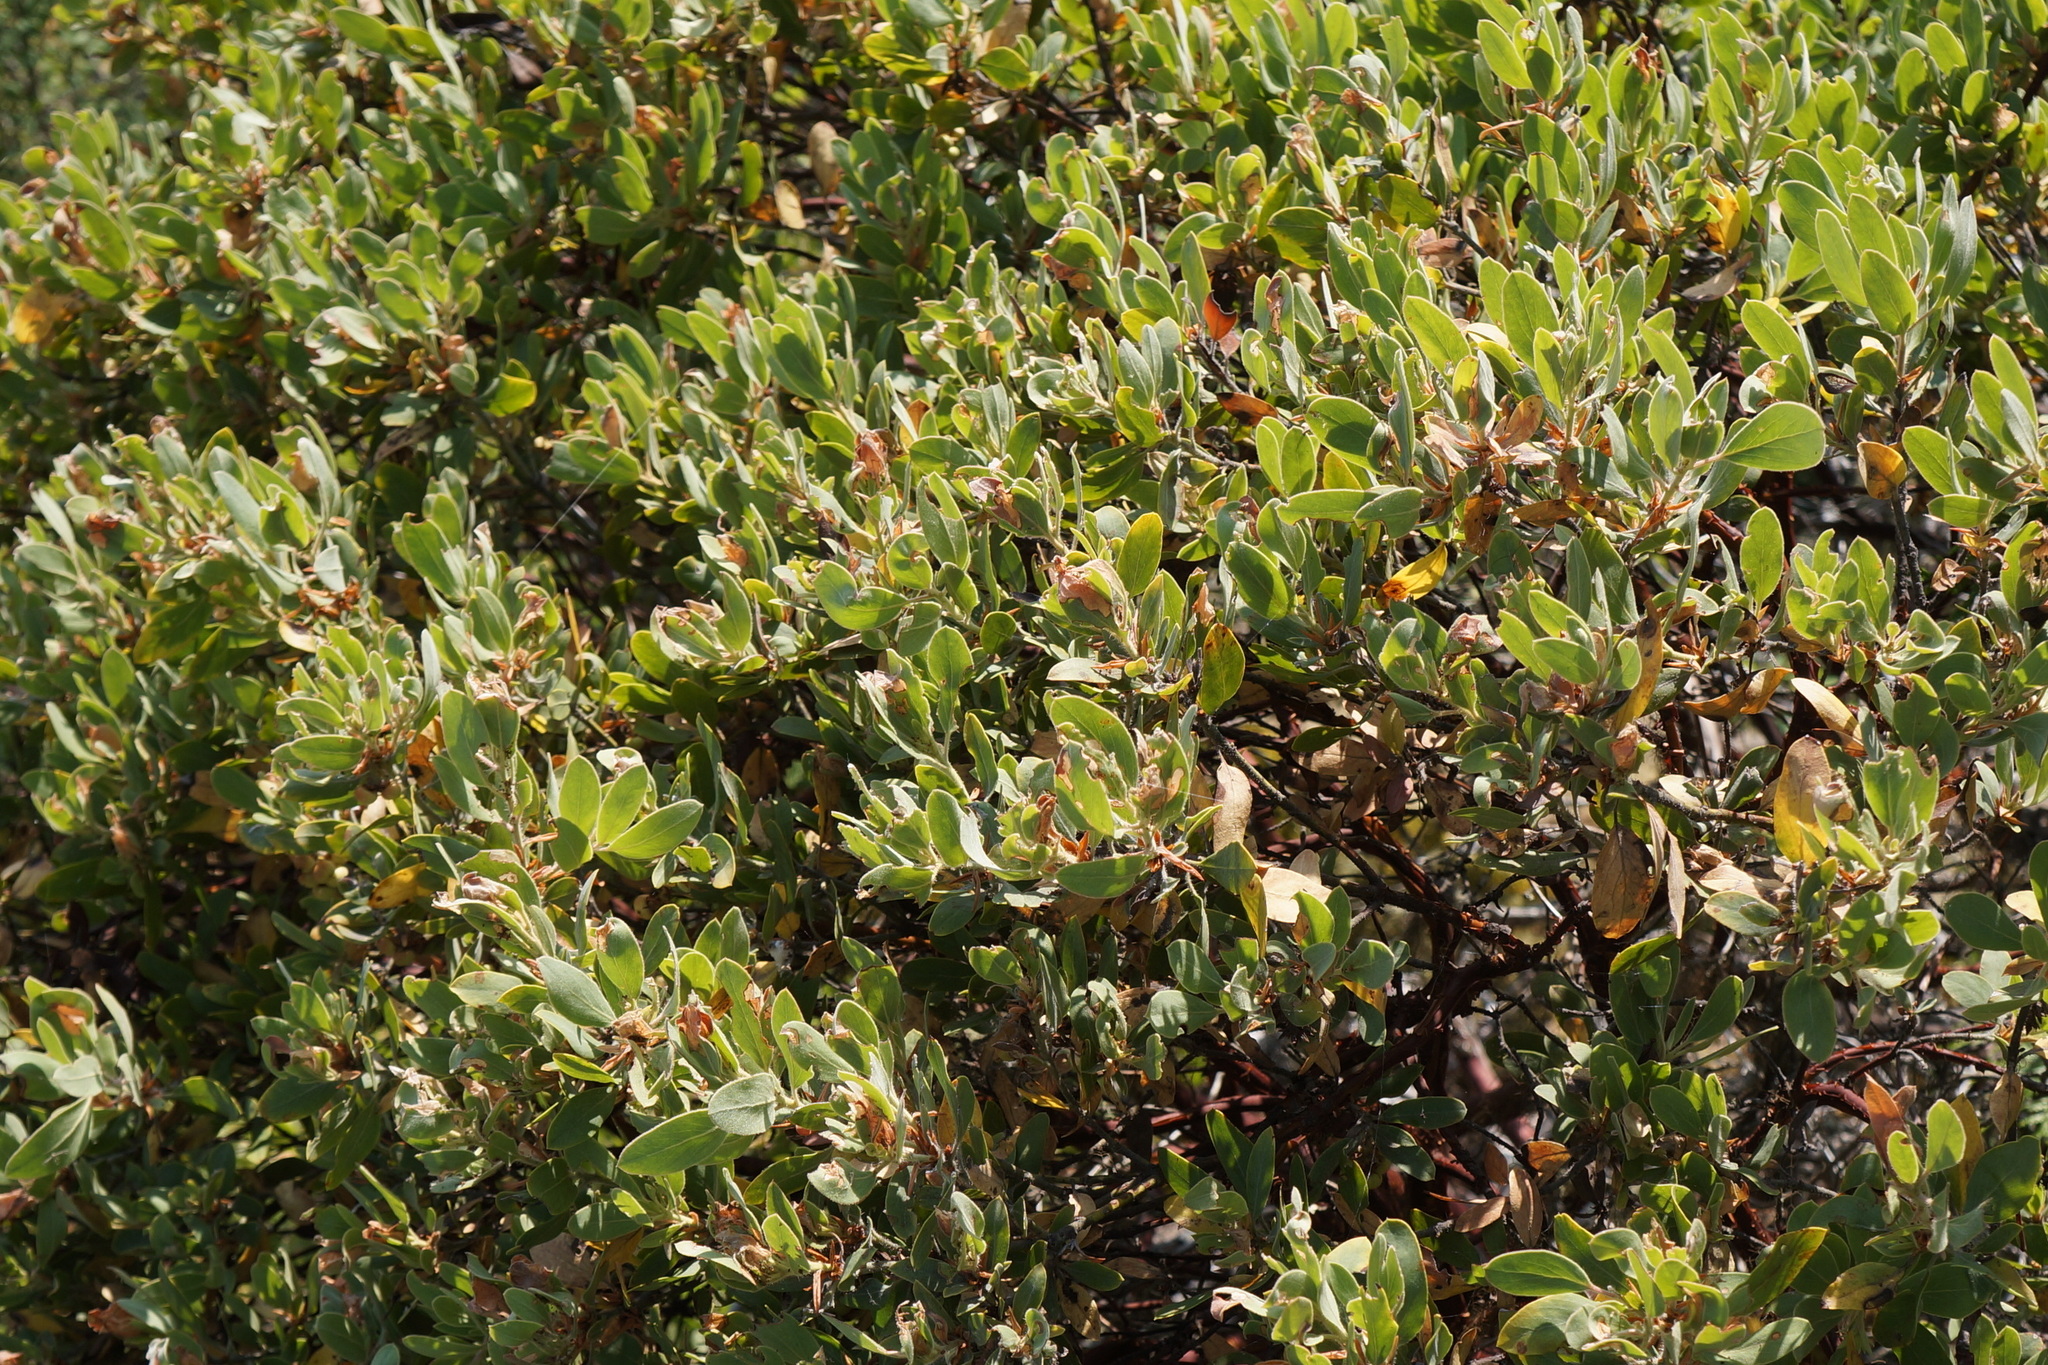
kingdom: Plantae
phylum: Tracheophyta
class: Magnoliopsida
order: Ericales
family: Ericaceae
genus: Arctostaphylos
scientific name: Arctostaphylos media
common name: Hybrid manzanita
